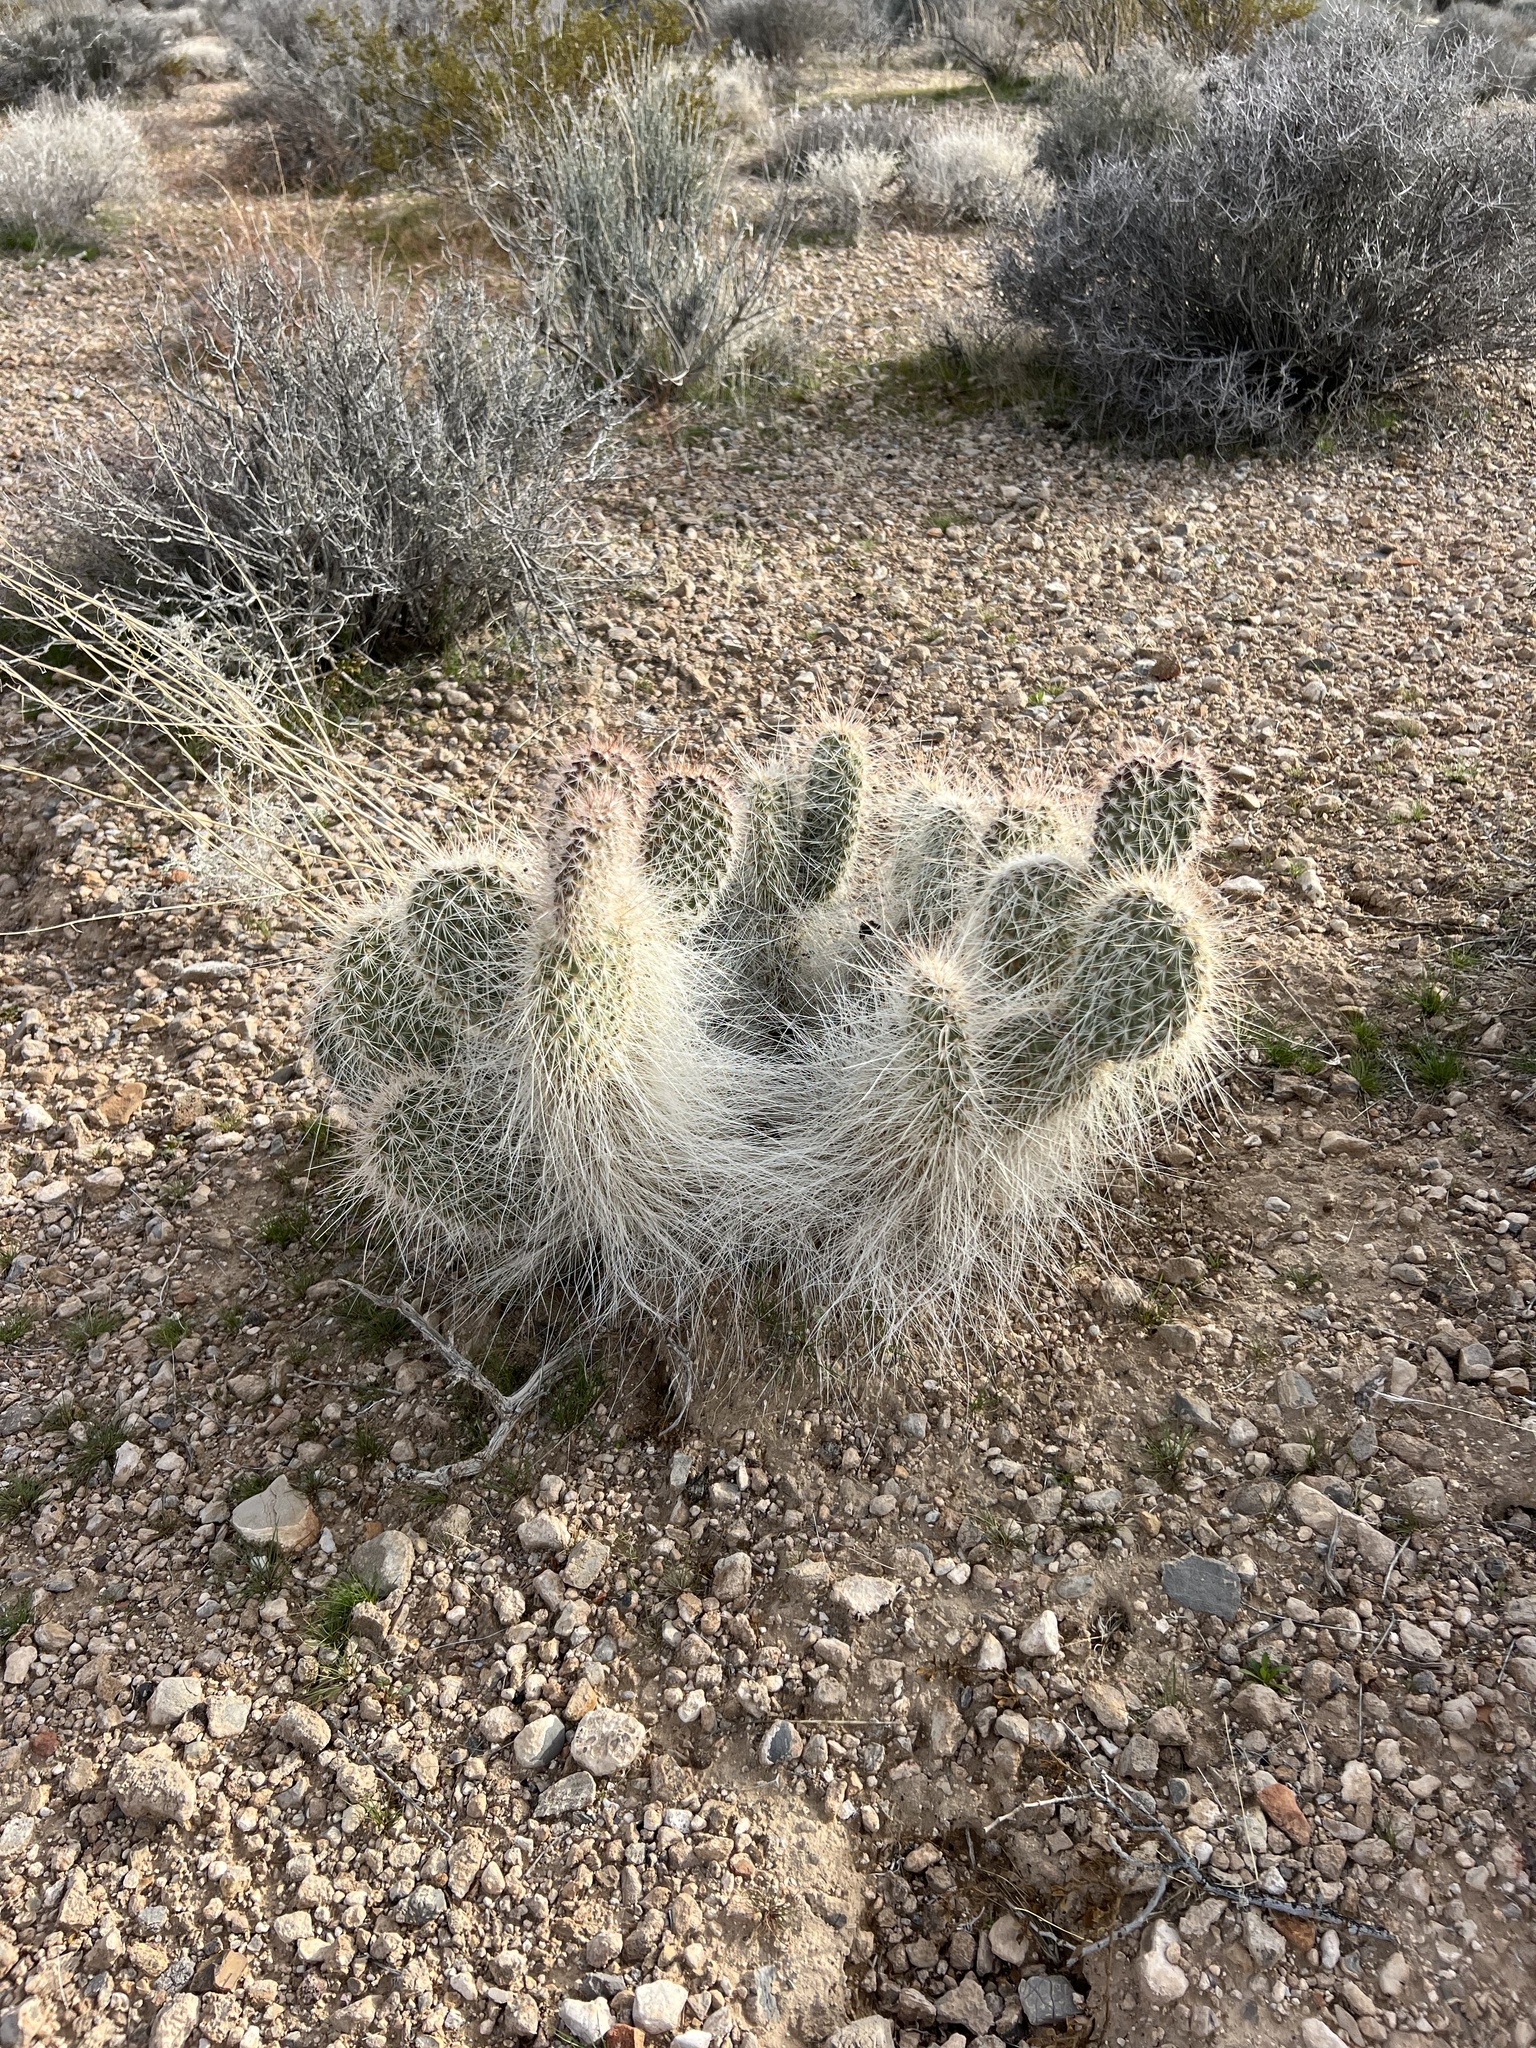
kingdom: Plantae
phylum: Tracheophyta
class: Magnoliopsida
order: Caryophyllales
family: Cactaceae
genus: Opuntia
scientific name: Opuntia polyacantha
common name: Plains prickly-pear
